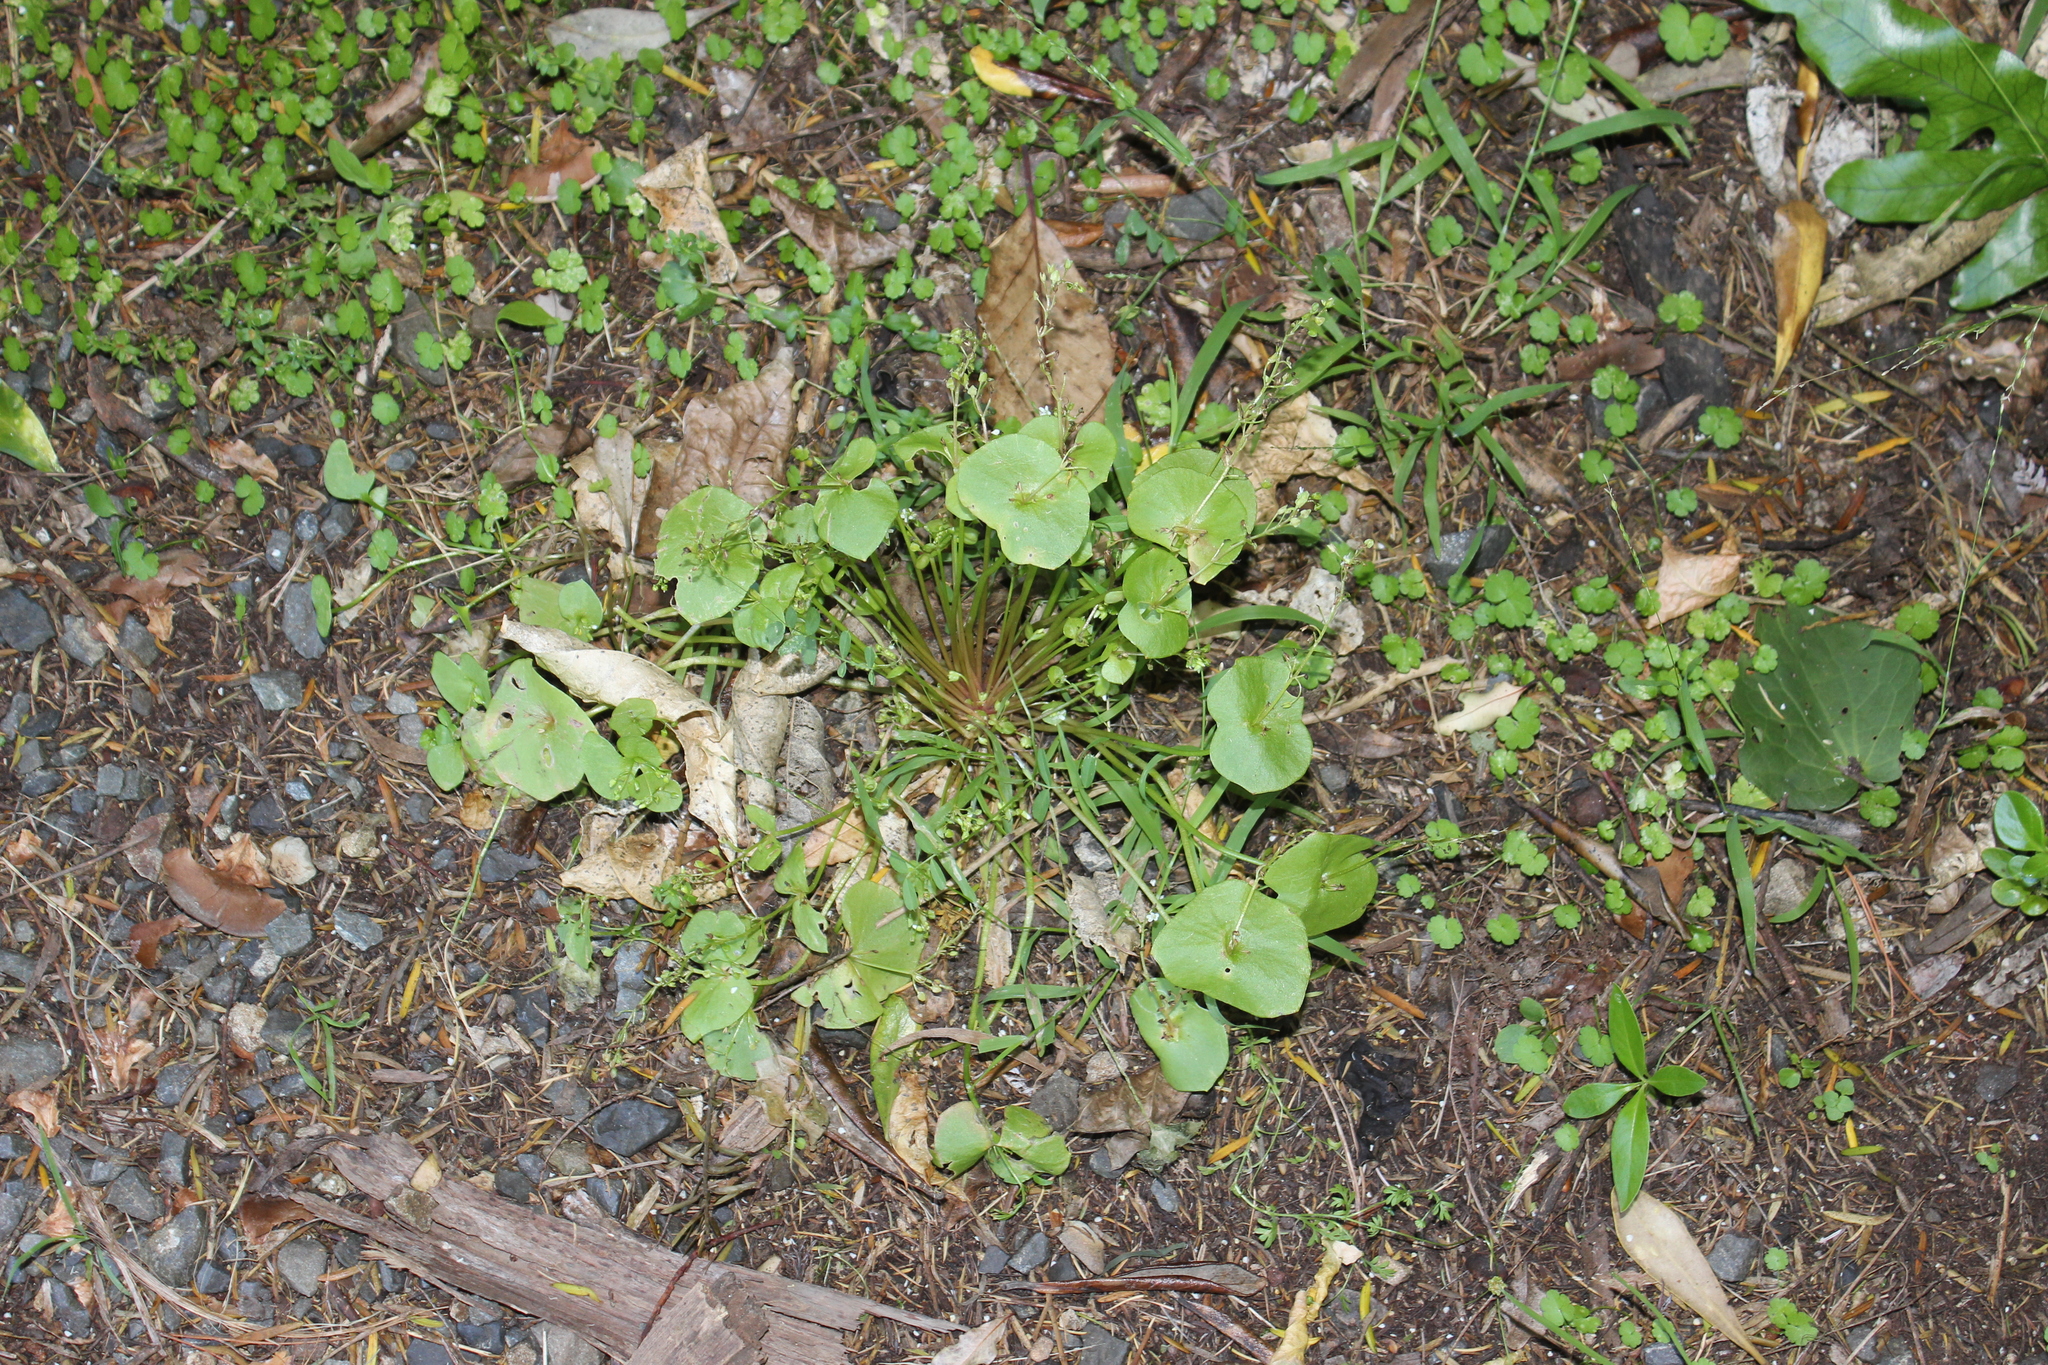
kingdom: Plantae
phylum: Tracheophyta
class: Magnoliopsida
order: Caryophyllales
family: Montiaceae
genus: Claytonia
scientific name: Claytonia perfoliata
